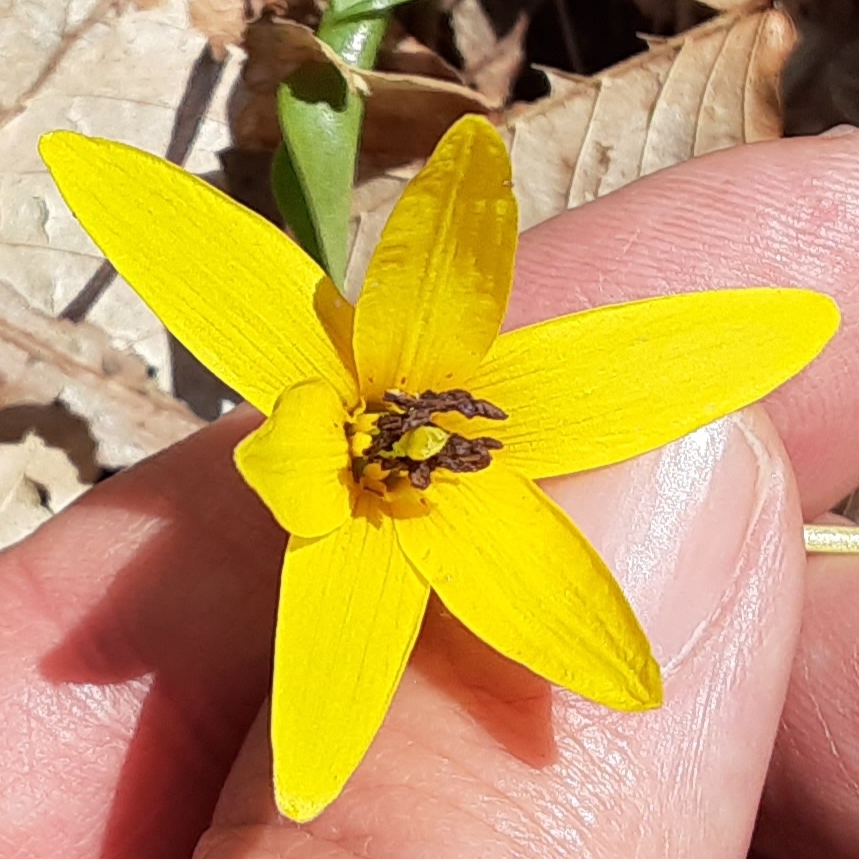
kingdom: Plantae
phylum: Tracheophyta
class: Liliopsida
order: Liliales
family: Liliaceae
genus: Erythronium
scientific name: Erythronium americanum
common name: Yellow adder's-tongue
